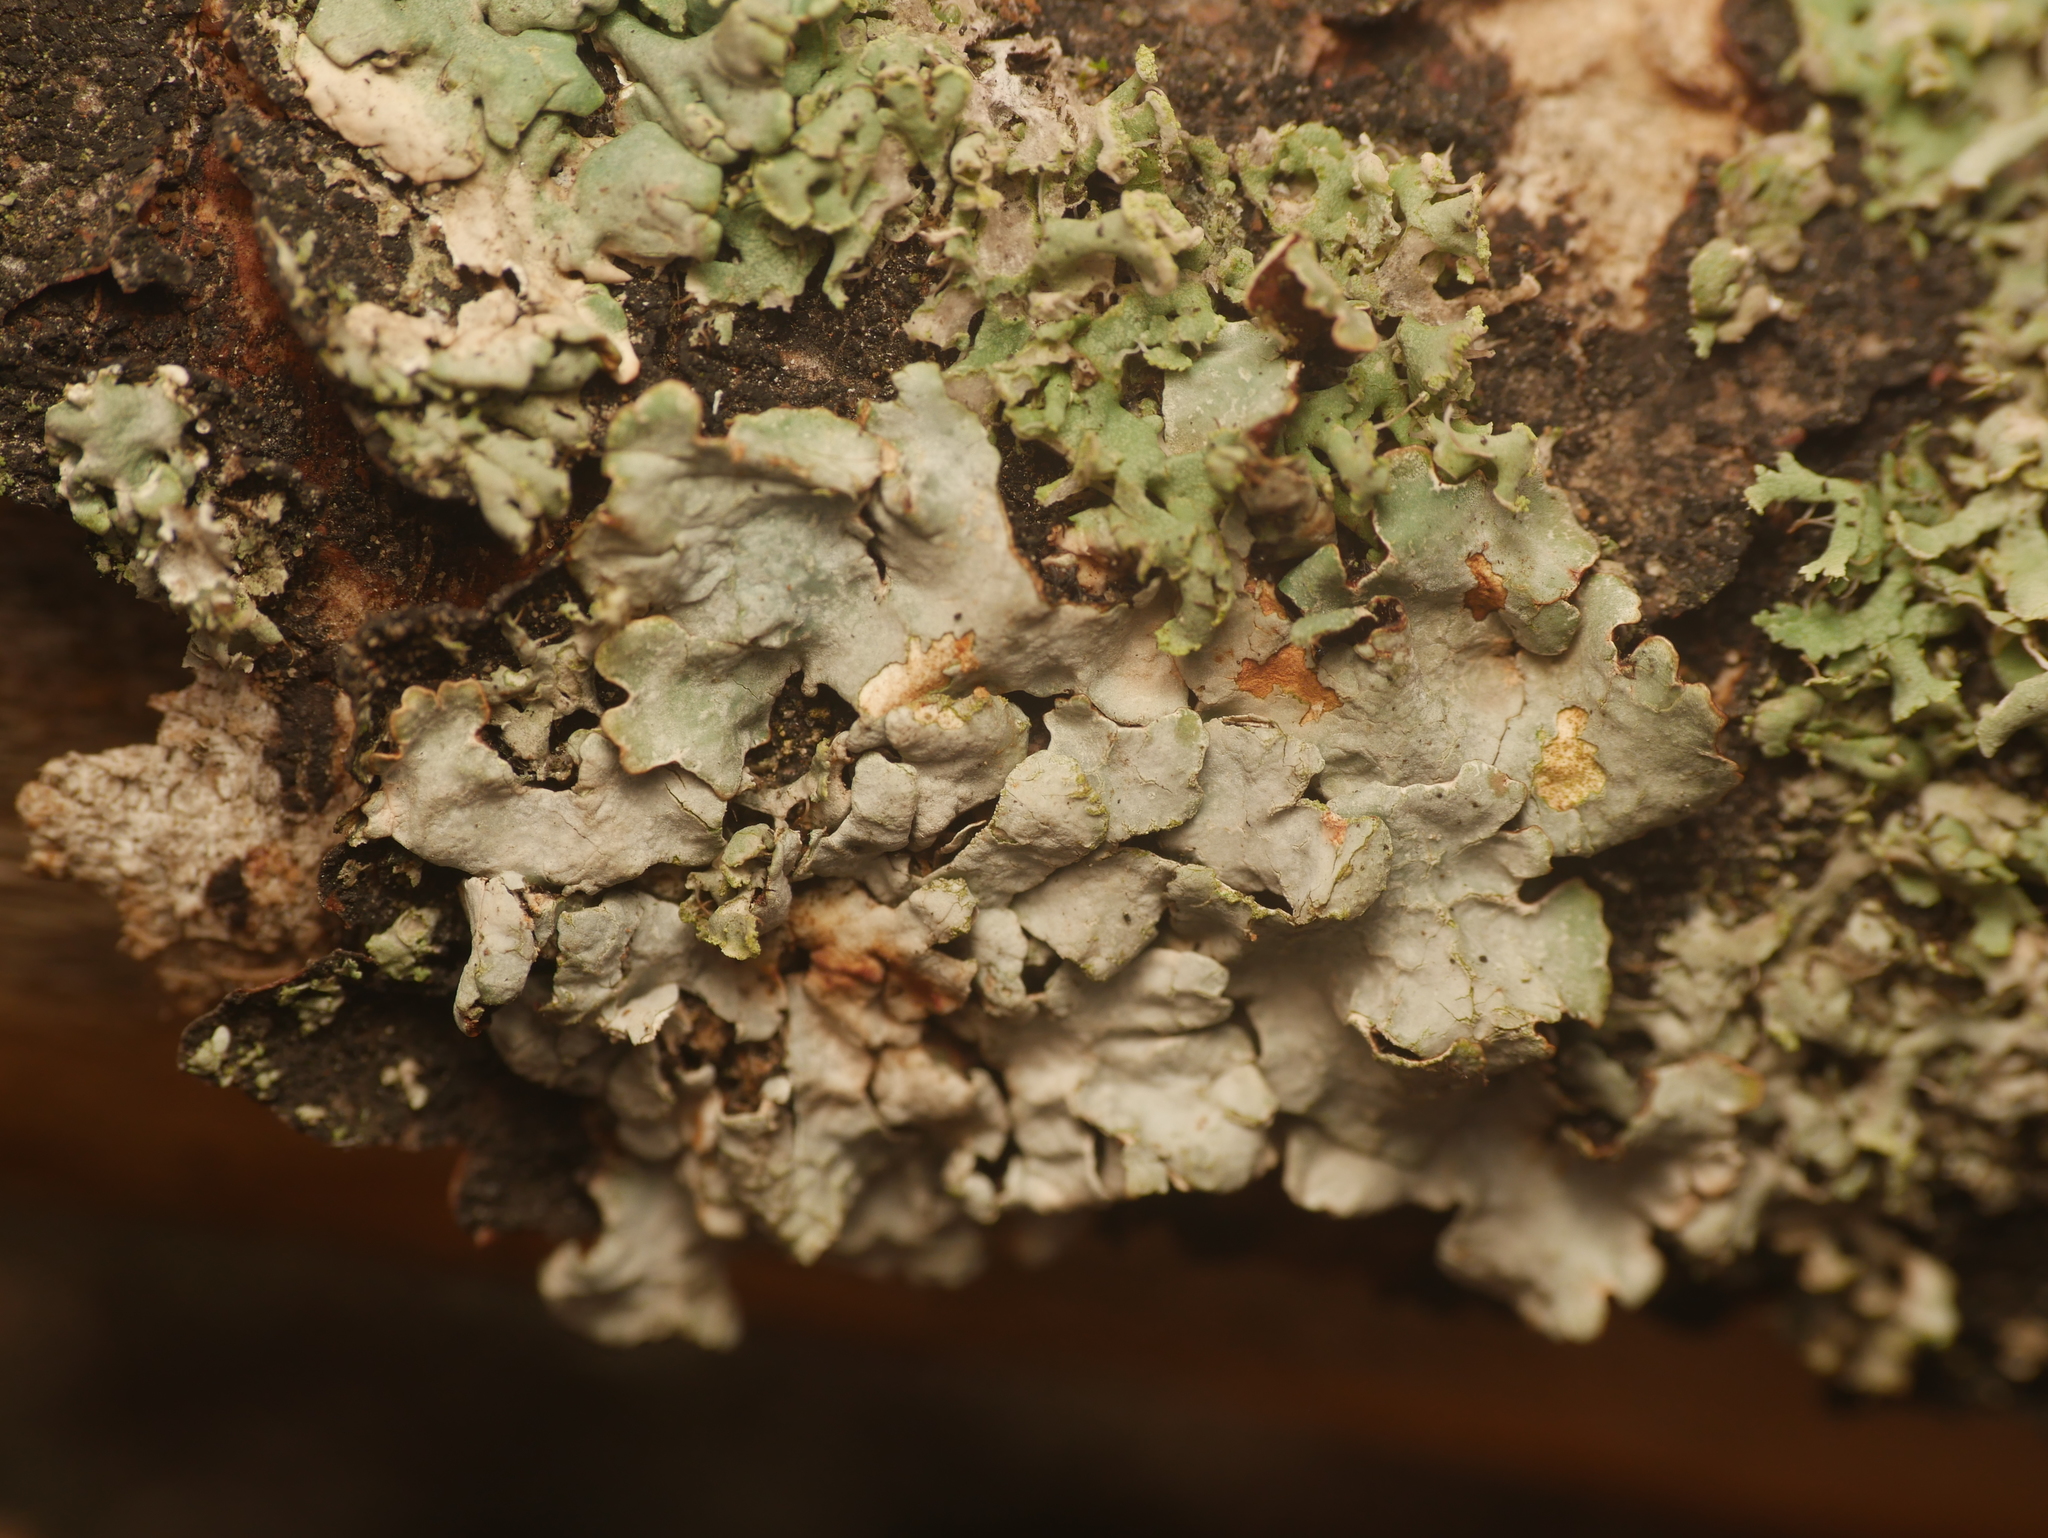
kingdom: Fungi
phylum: Ascomycota
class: Lecanoromycetes
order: Lecanorales
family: Parmeliaceae
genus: Parmelia
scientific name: Parmelia sulcata
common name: Netted shield lichen
